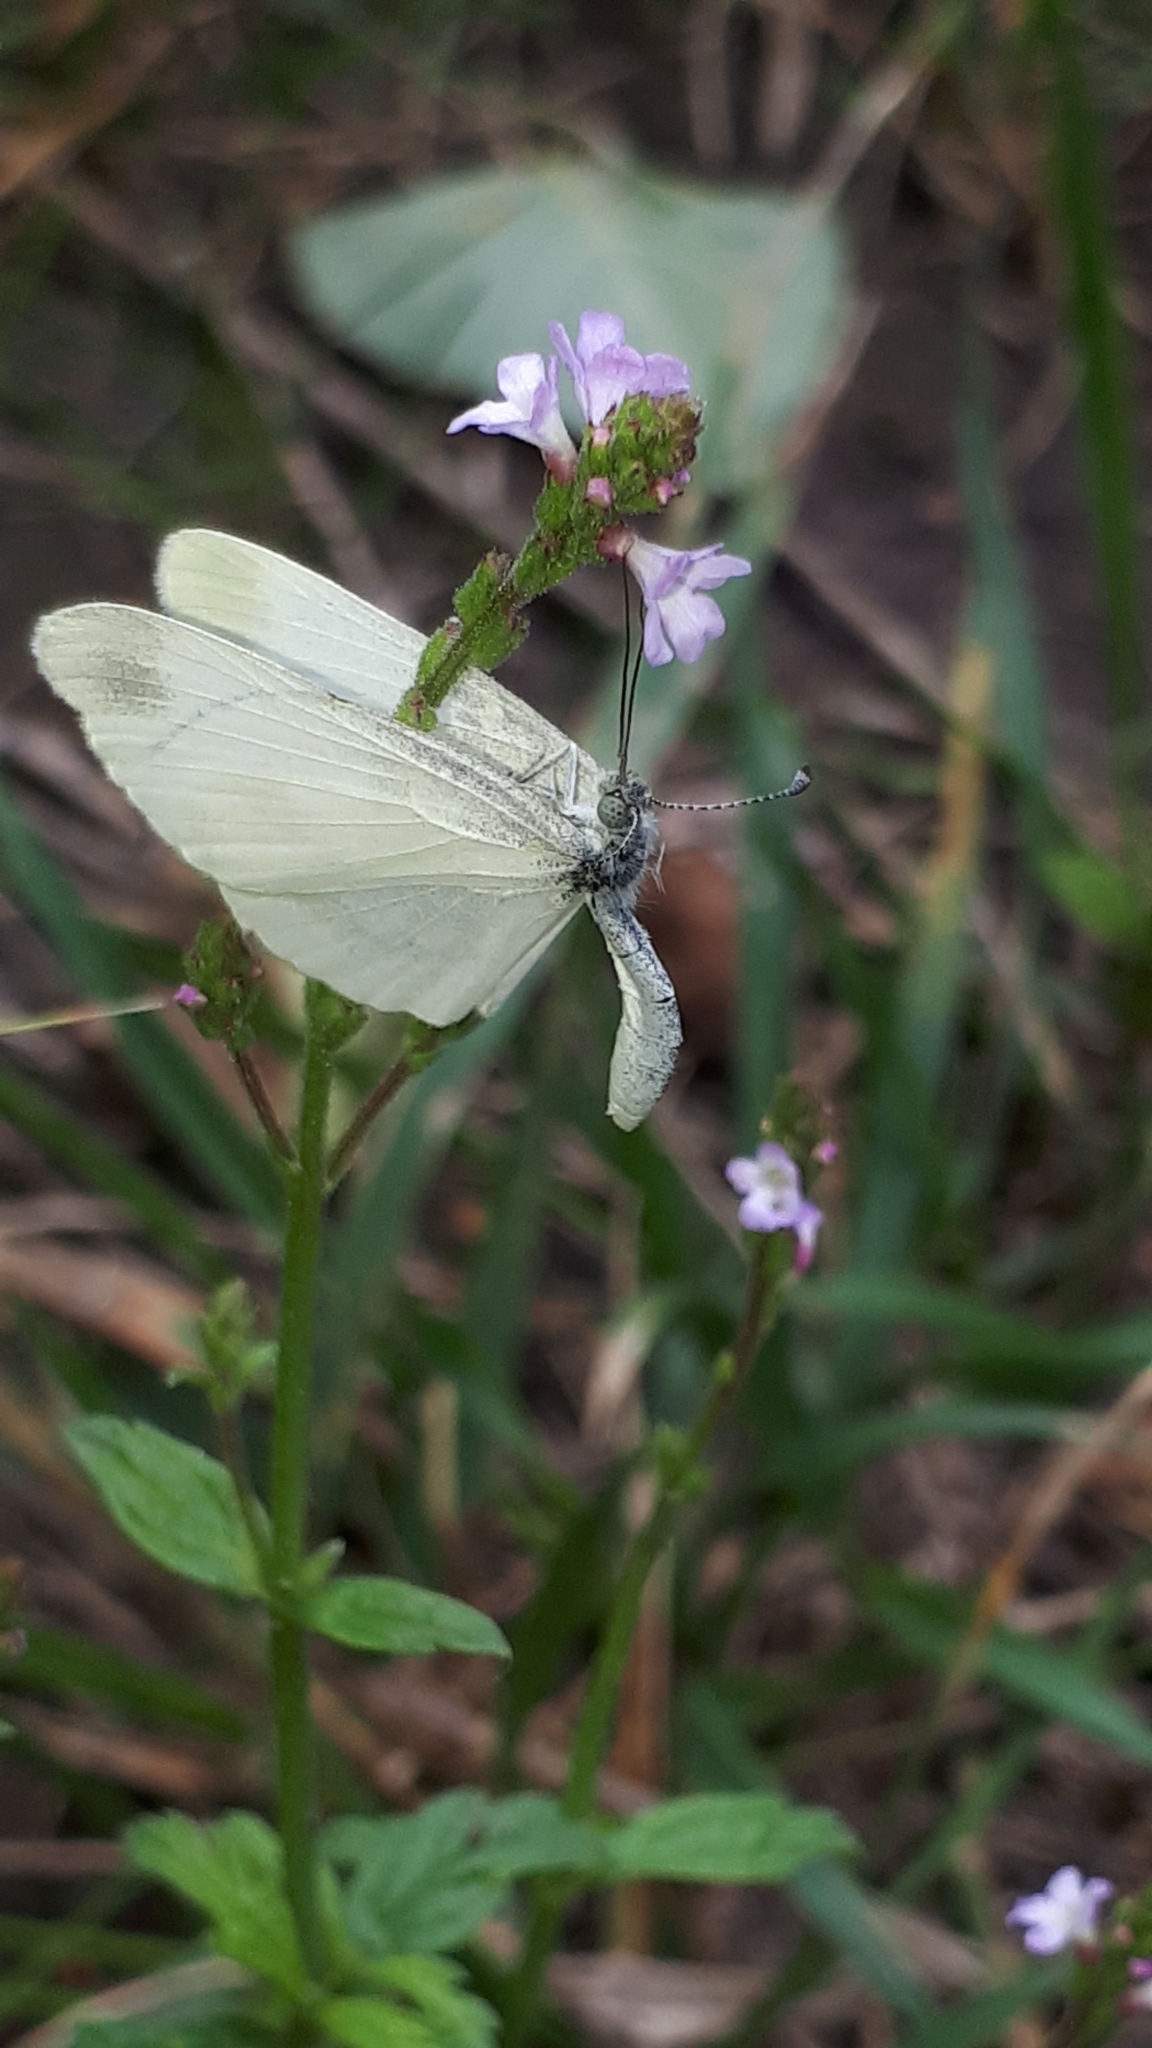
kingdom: Animalia
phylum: Arthropoda
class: Insecta
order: Lepidoptera
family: Pieridae
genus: Leptidea
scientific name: Leptidea
